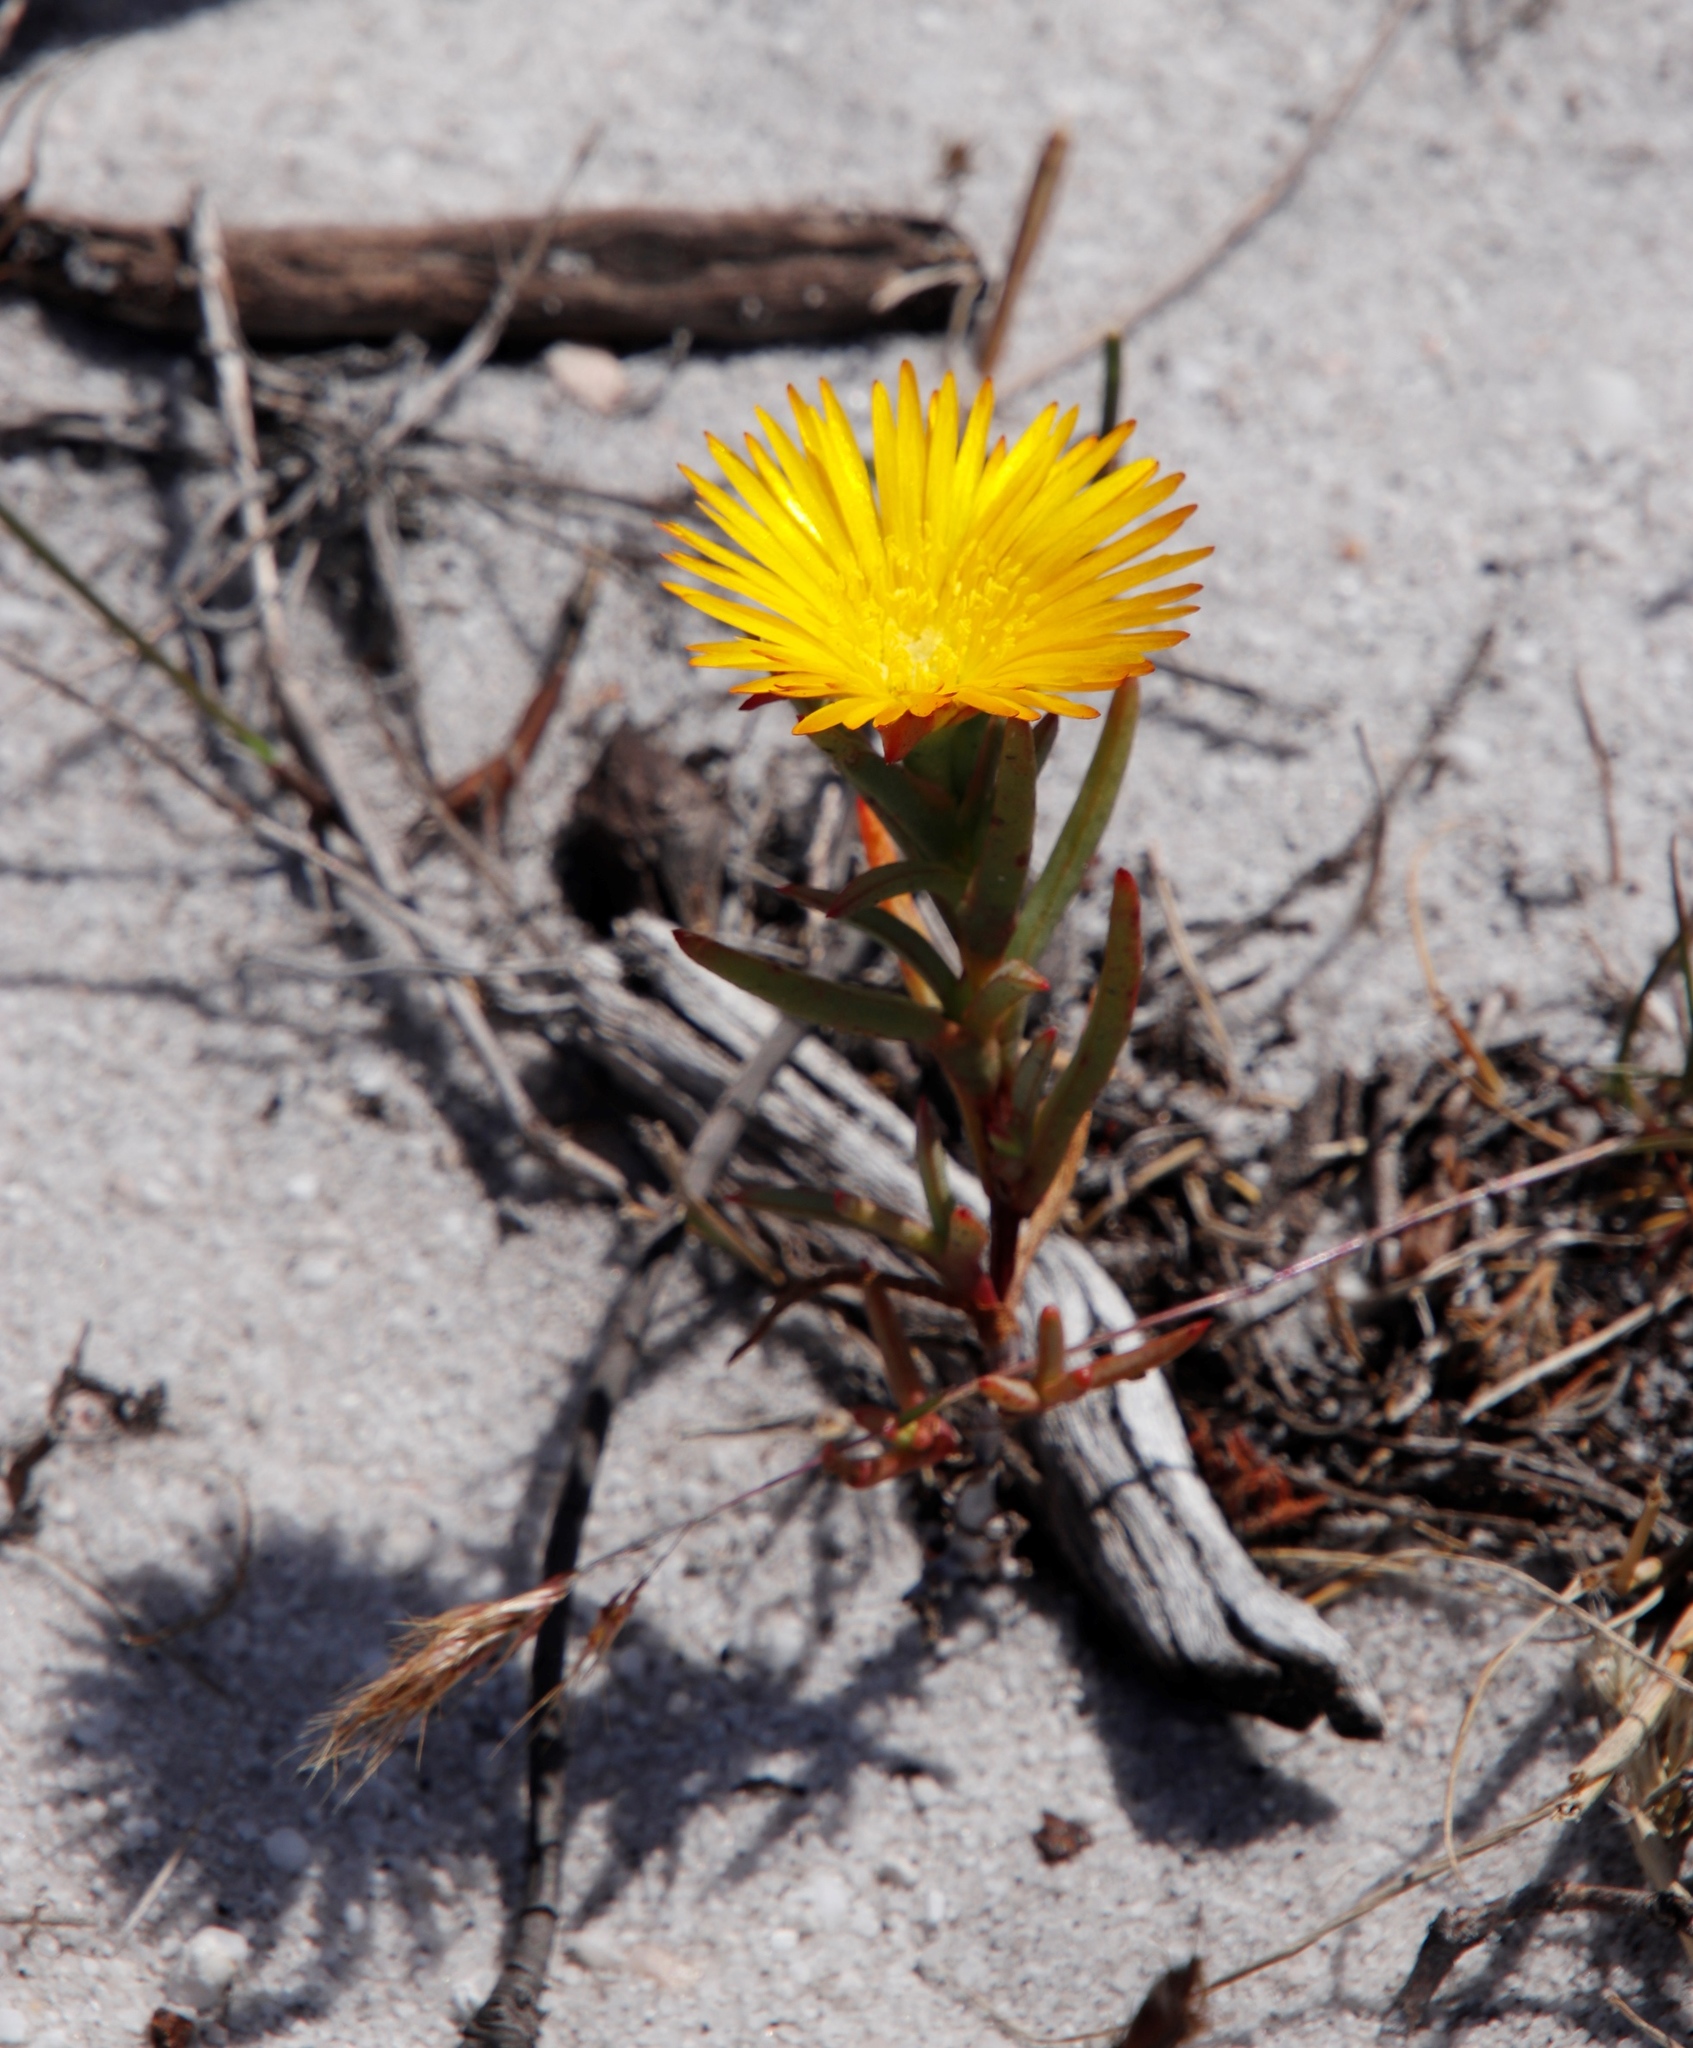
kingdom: Plantae
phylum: Tracheophyta
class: Magnoliopsida
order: Caryophyllales
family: Aizoaceae
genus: Lampranthus
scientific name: Lampranthus bicolor
